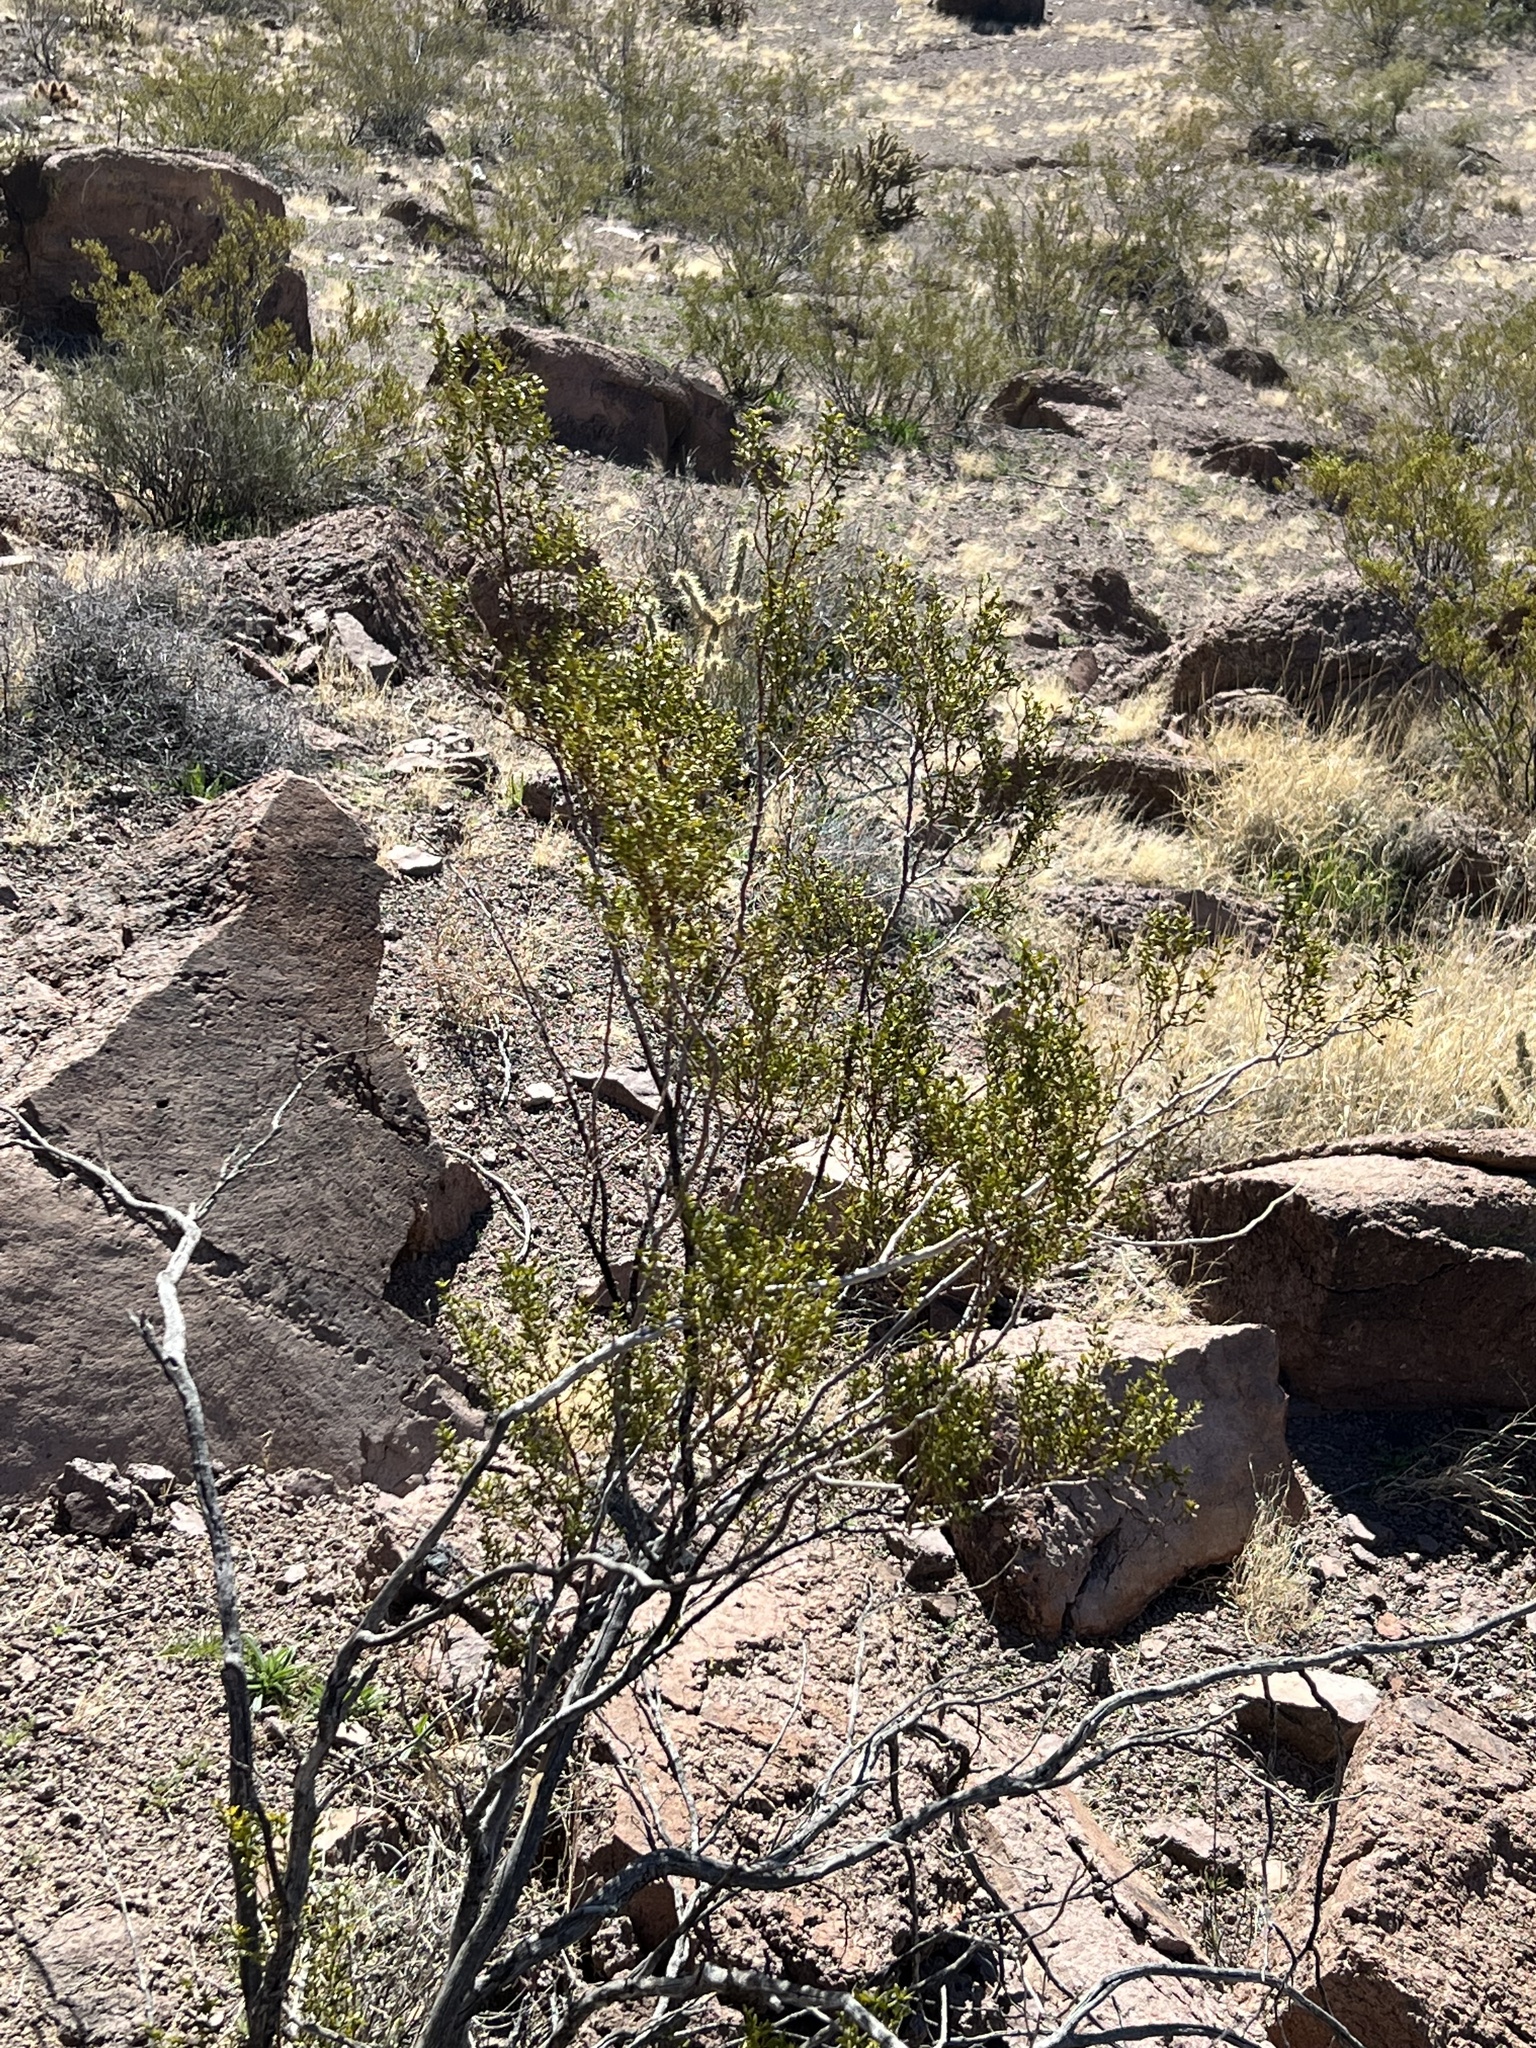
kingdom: Plantae
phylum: Tracheophyta
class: Magnoliopsida
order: Zygophyllales
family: Zygophyllaceae
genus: Larrea
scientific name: Larrea tridentata
